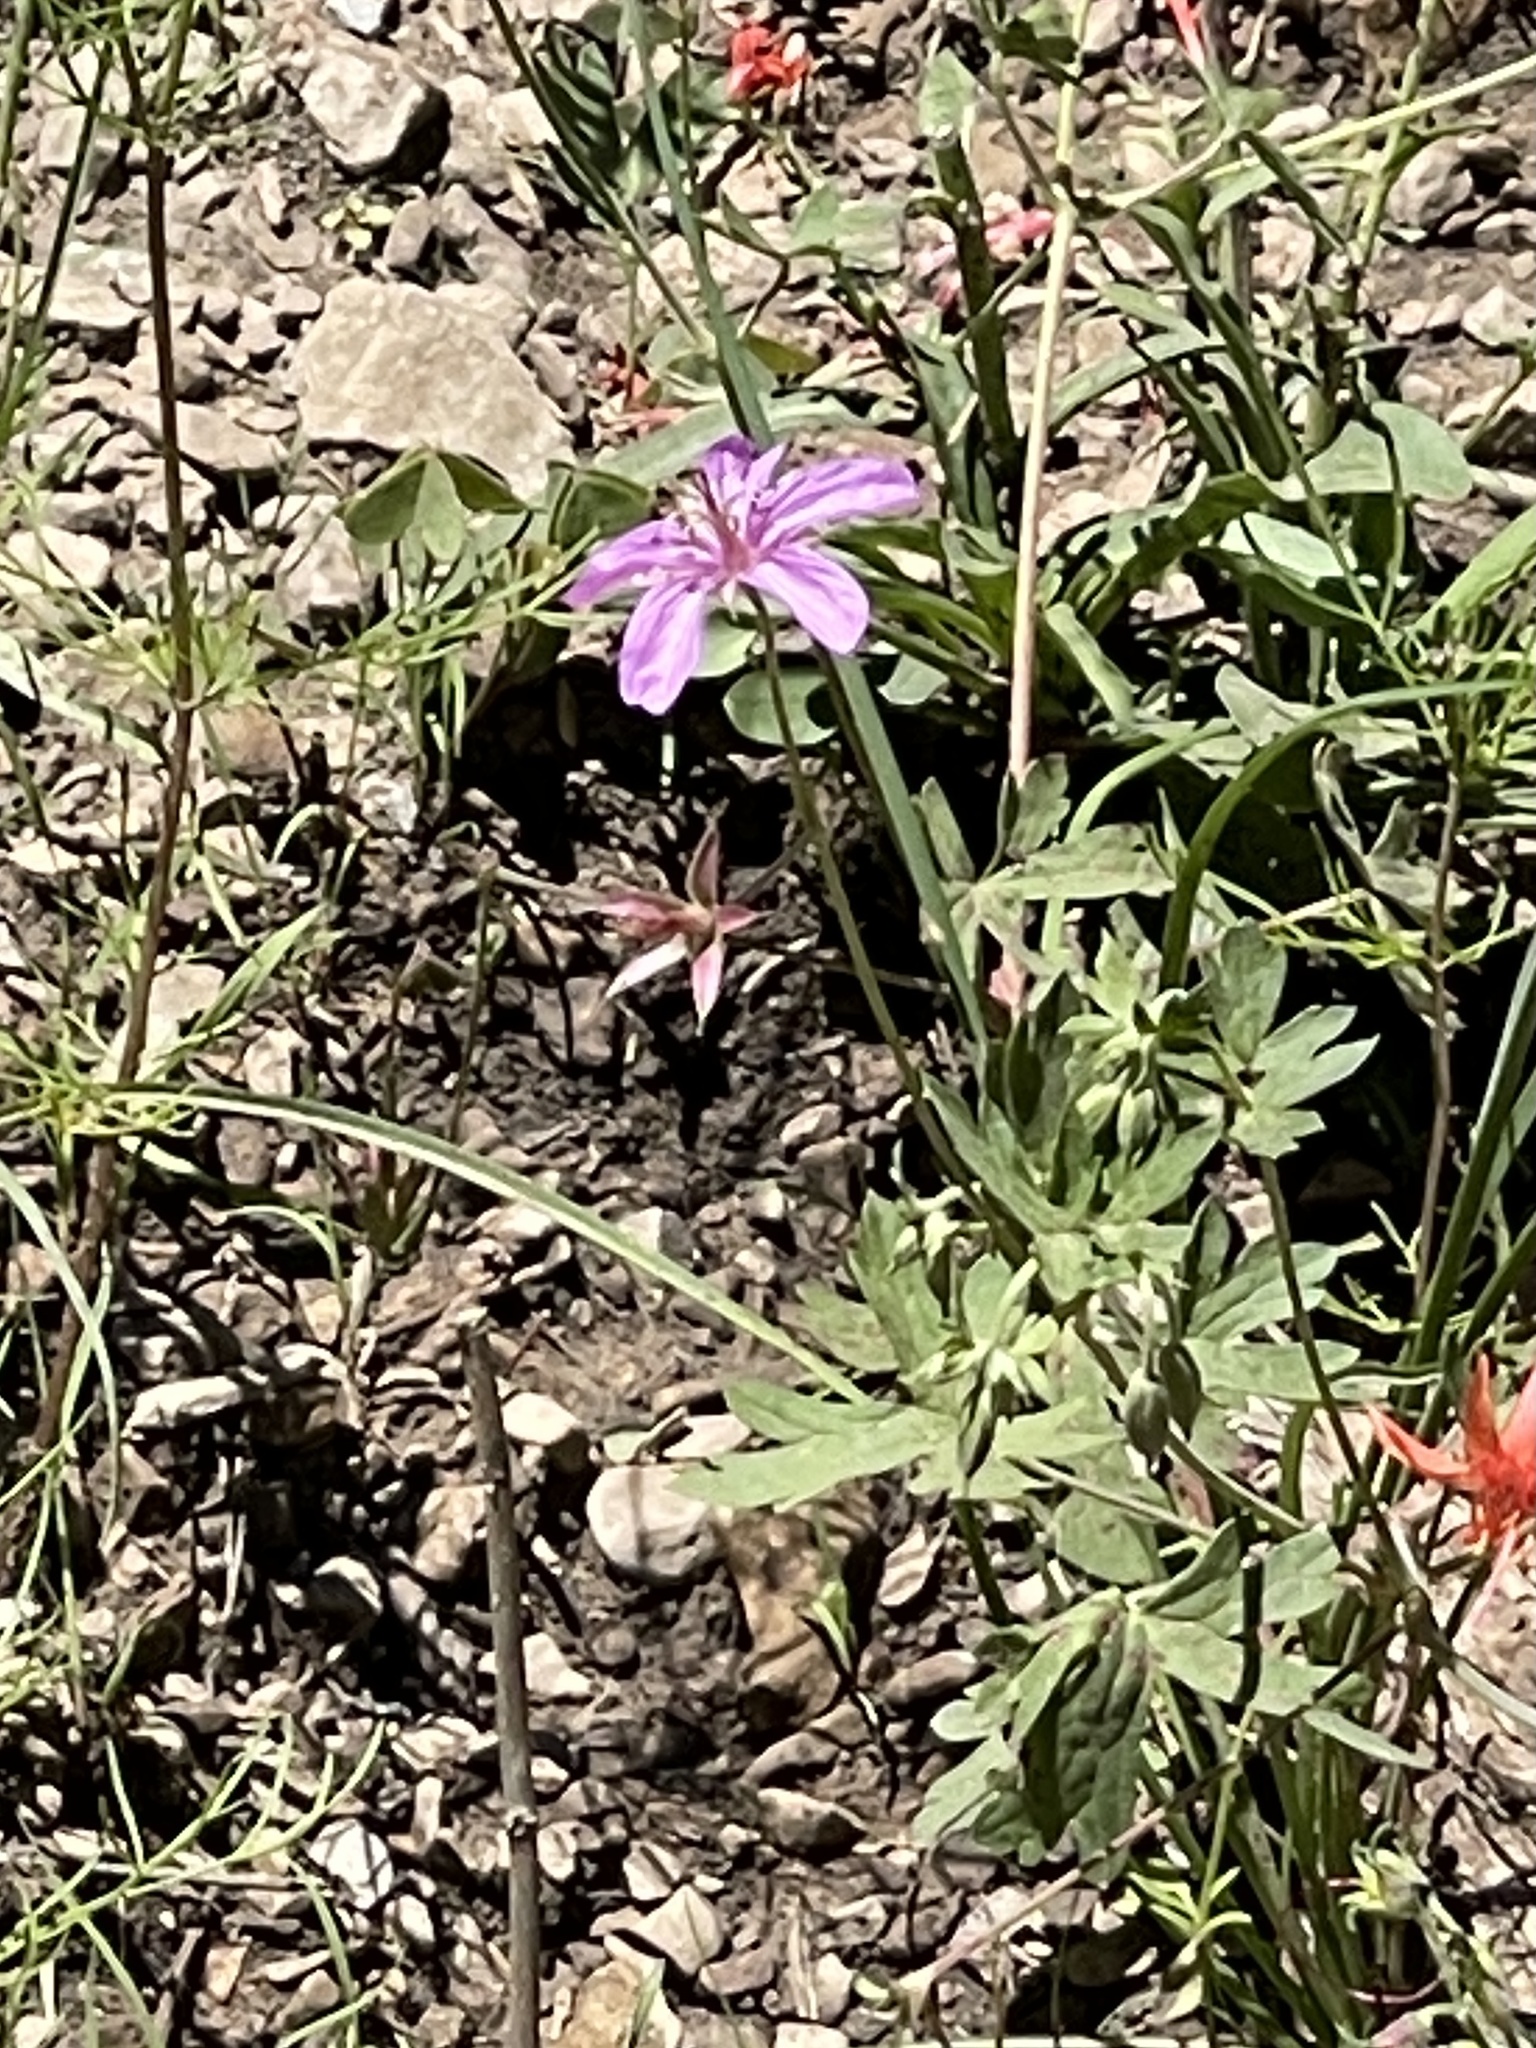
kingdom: Plantae
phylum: Tracheophyta
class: Magnoliopsida
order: Geraniales
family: Geraniaceae
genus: Geranium
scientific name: Geranium caespitosum
